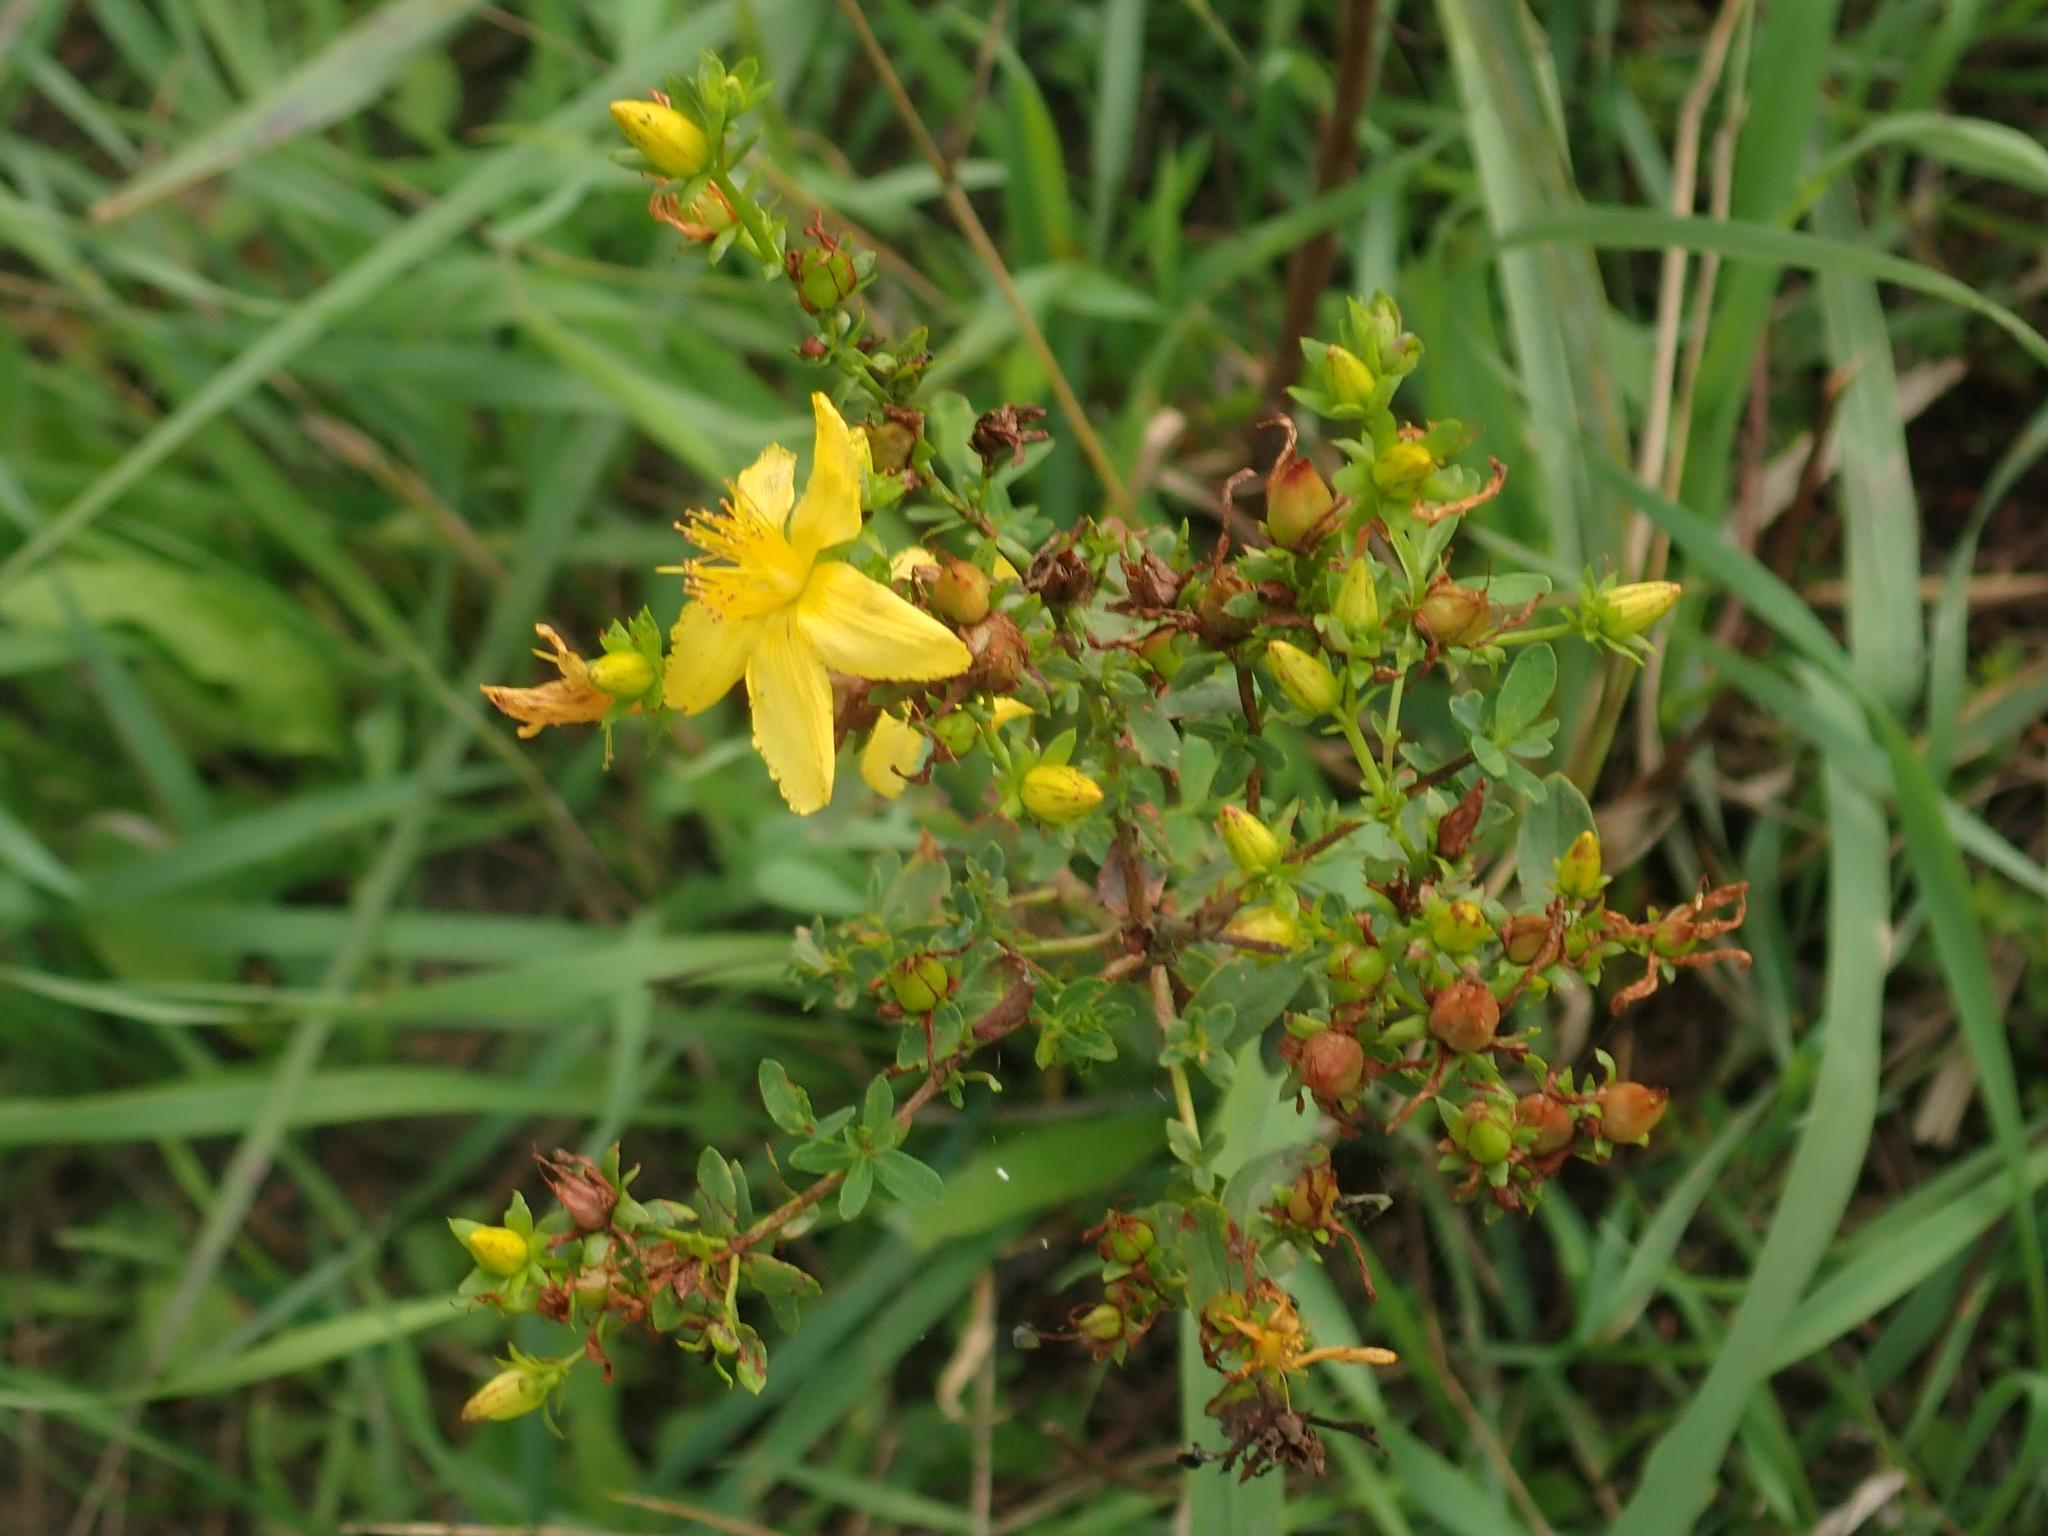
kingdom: Plantae
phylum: Tracheophyta
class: Magnoliopsida
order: Malpighiales
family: Hypericaceae
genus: Hypericum
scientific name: Hypericum perforatum
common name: Common st. johnswort
